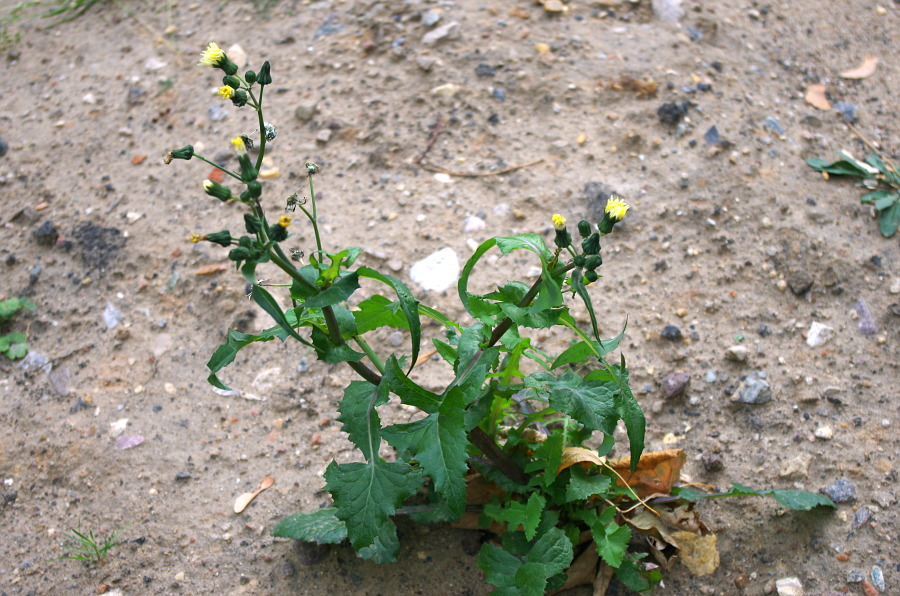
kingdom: Plantae
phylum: Tracheophyta
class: Magnoliopsida
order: Asterales
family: Asteraceae
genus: Sonchus
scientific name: Sonchus oleraceus
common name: Common sowthistle
